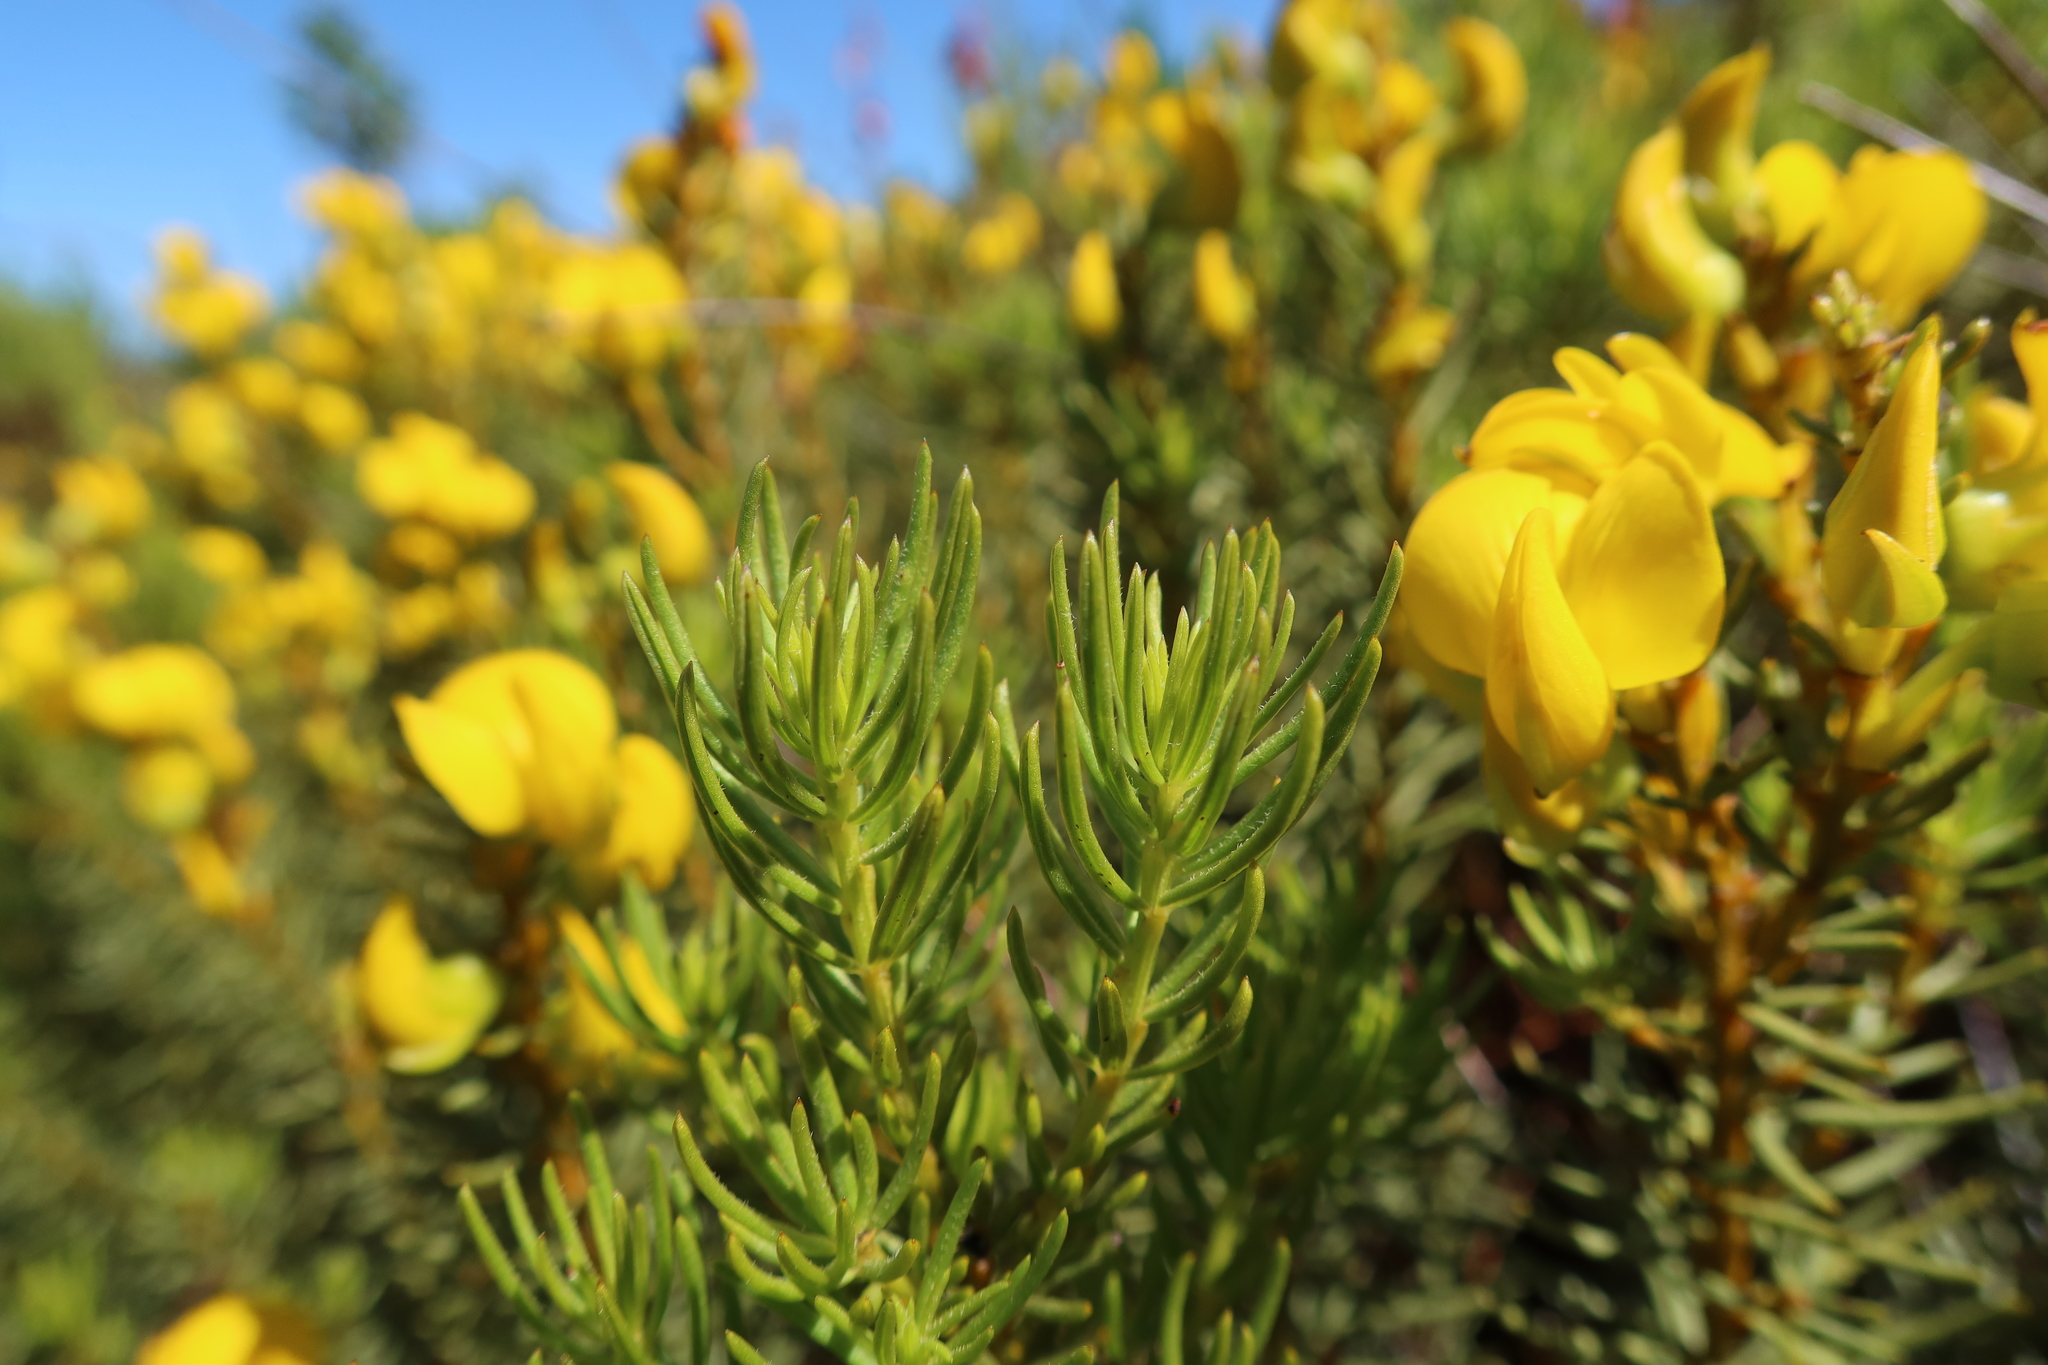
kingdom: Plantae
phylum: Tracheophyta
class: Magnoliopsida
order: Fabales
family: Fabaceae
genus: Cyclopia
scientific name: Cyclopia genistoides
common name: Honeybush tea
